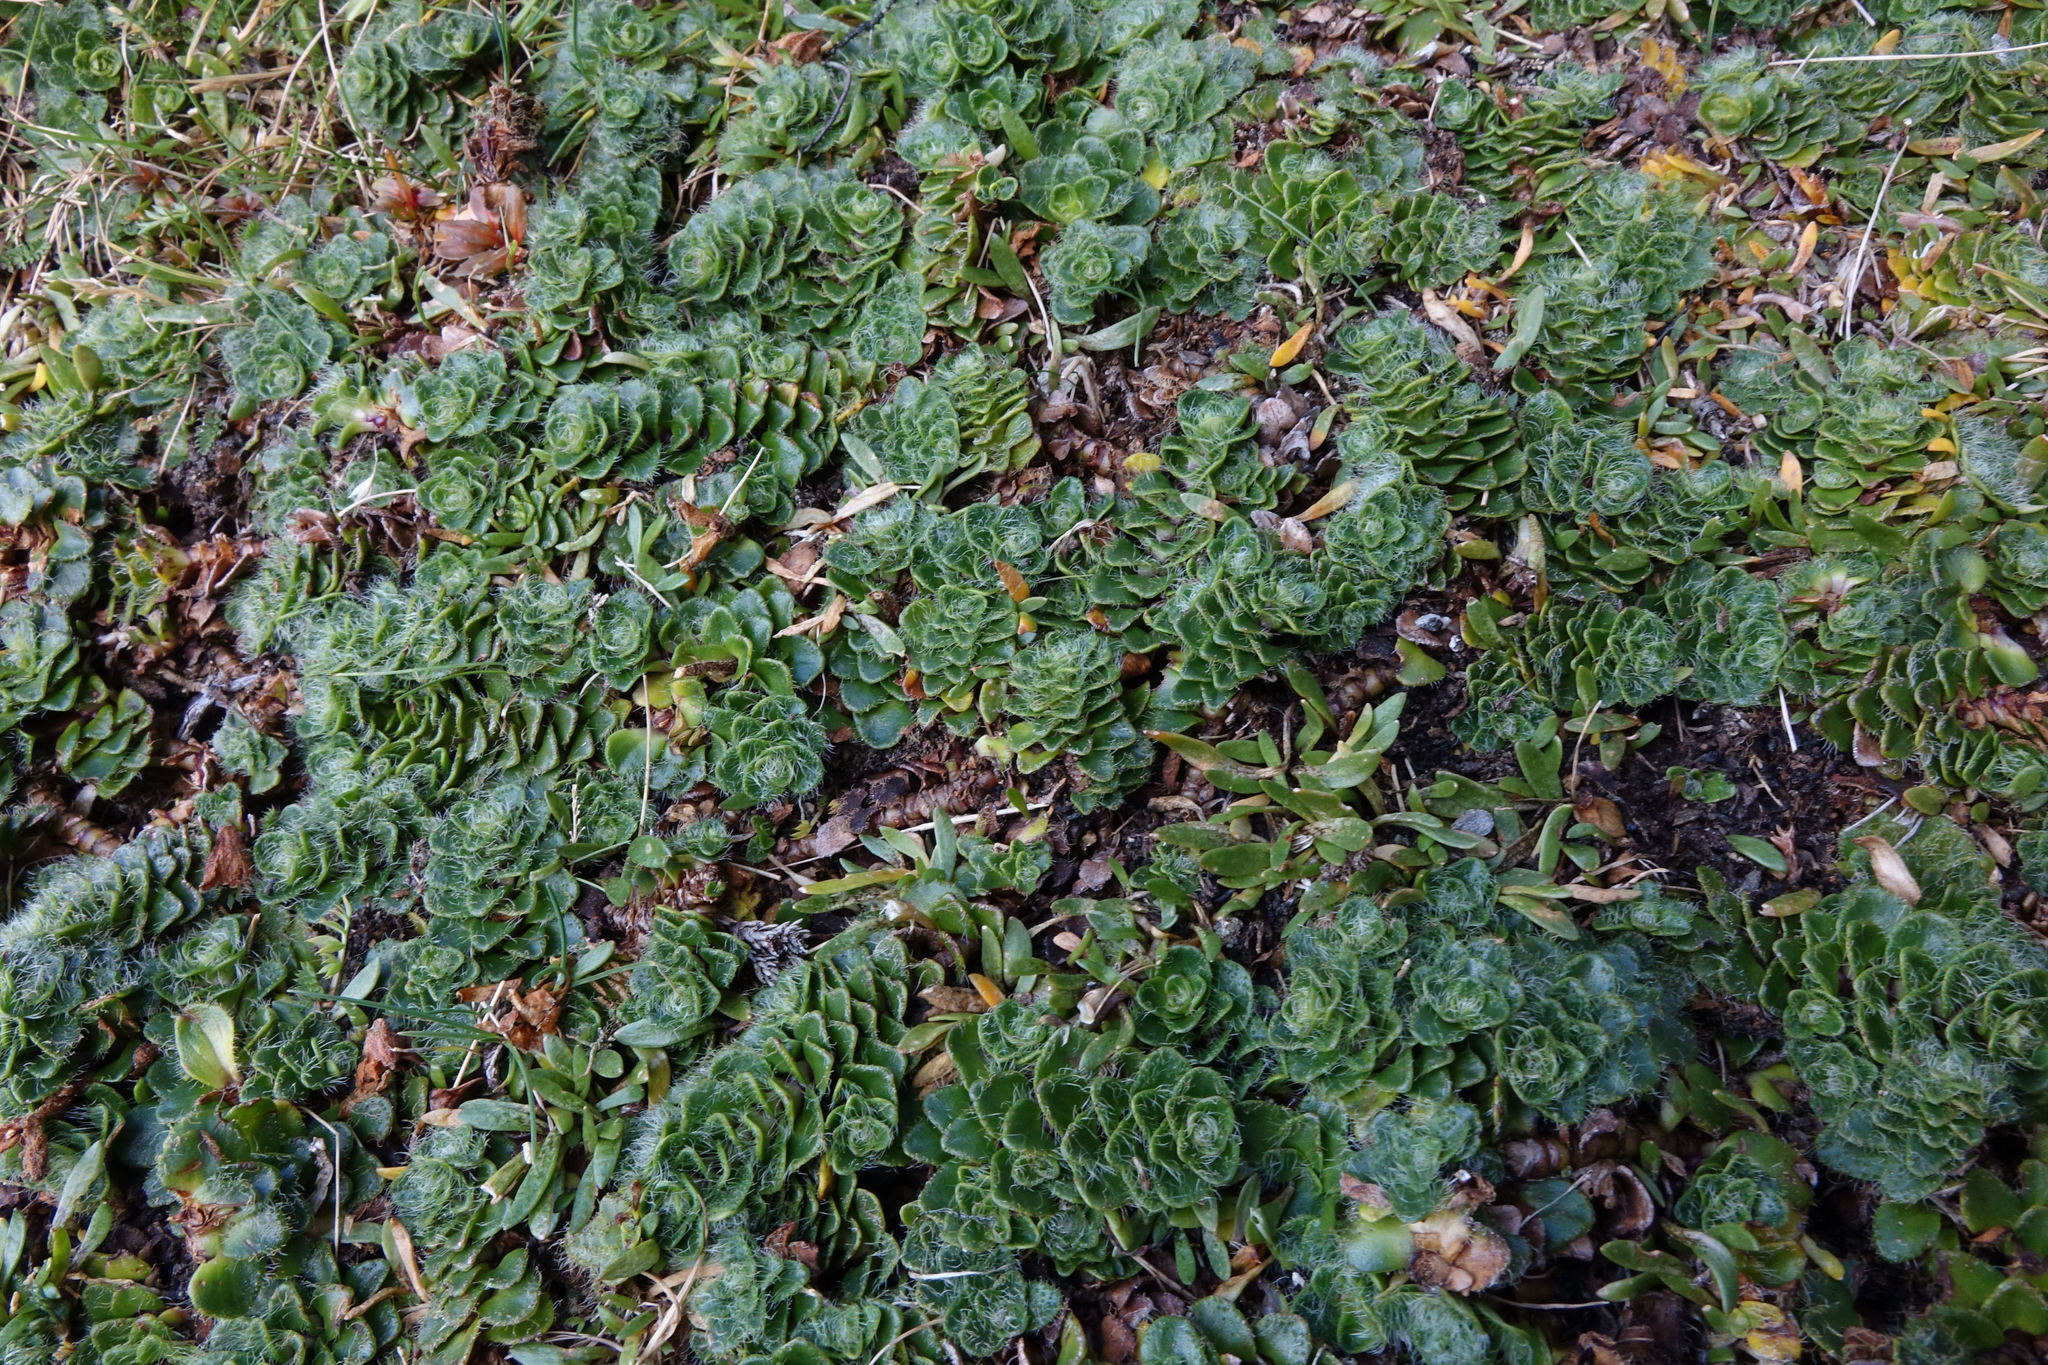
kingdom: Plantae
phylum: Tracheophyta
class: Magnoliopsida
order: Lamiales
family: Plantaginaceae
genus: Ourisia
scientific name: Ourisia glandulosa
